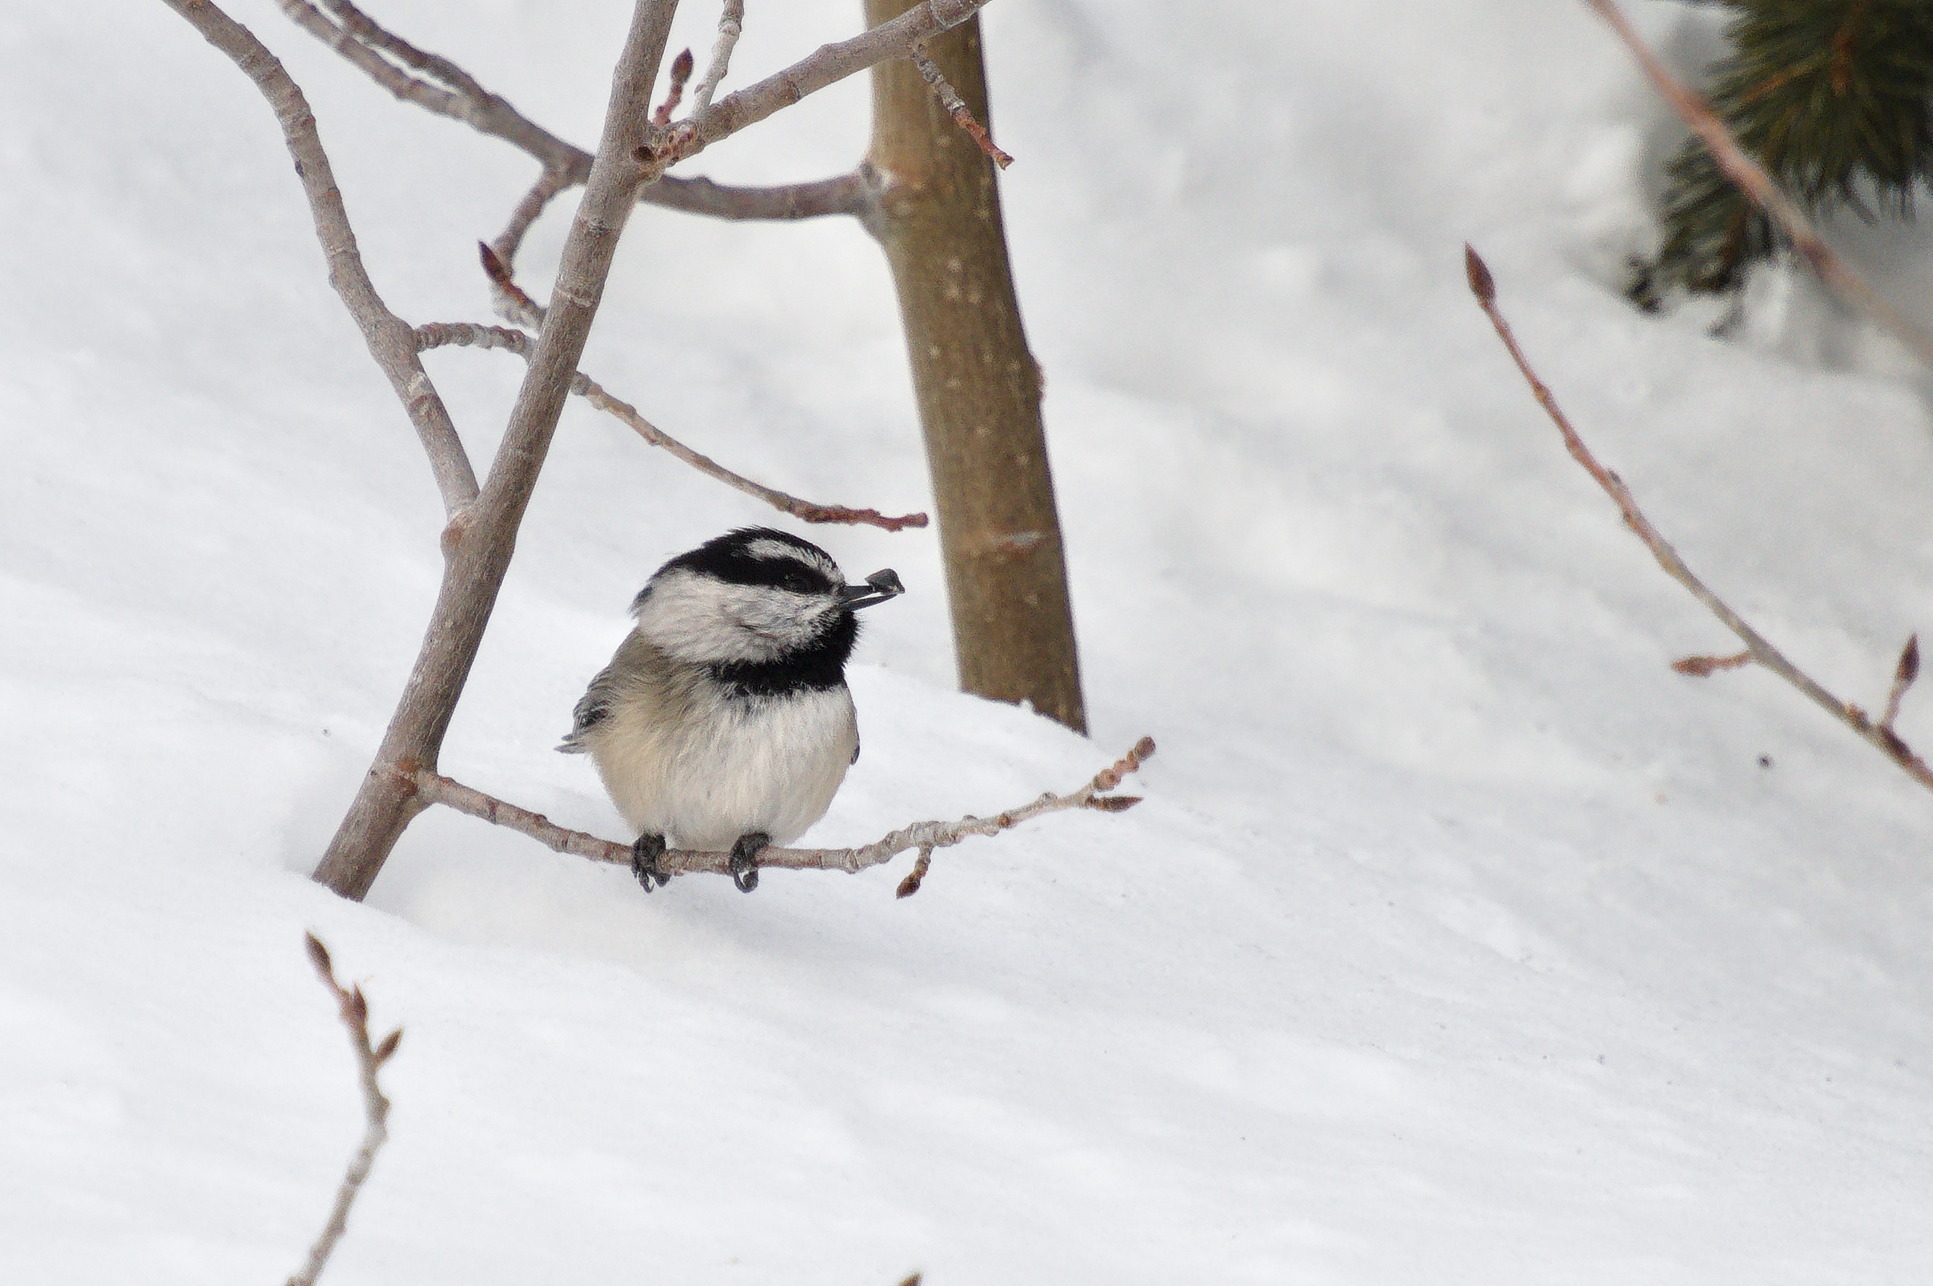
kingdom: Animalia
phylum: Chordata
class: Aves
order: Passeriformes
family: Paridae
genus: Poecile
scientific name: Poecile gambeli
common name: Mountain chickadee
